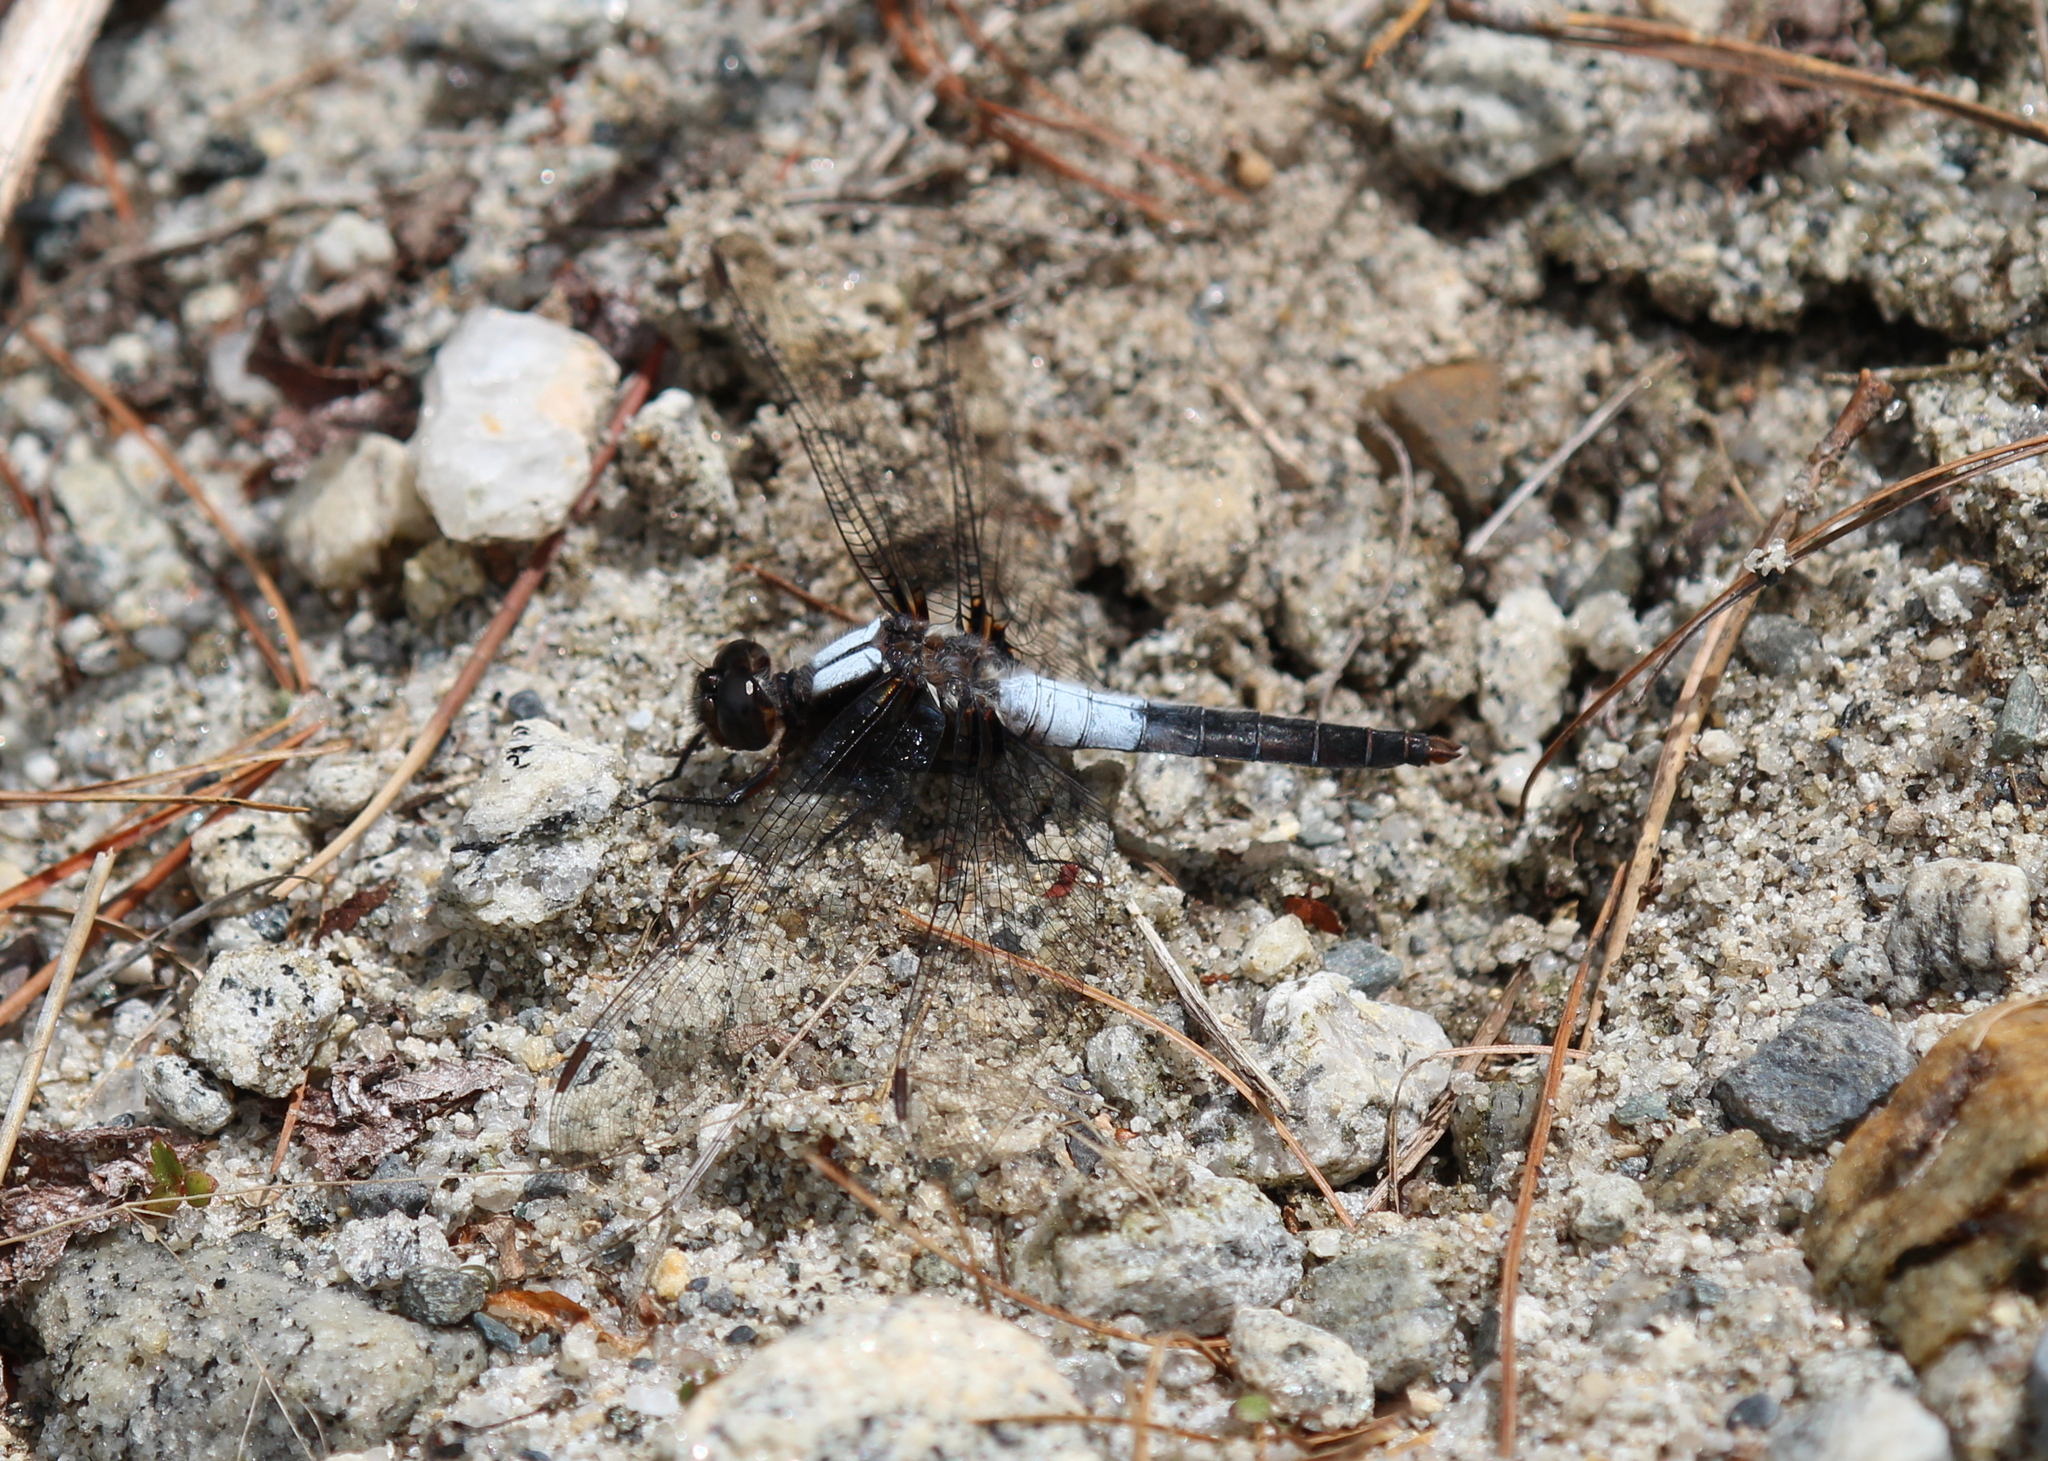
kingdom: Animalia
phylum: Arthropoda
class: Insecta
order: Odonata
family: Libellulidae
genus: Ladona
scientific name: Ladona julia
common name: Chalk-fronted corporal
